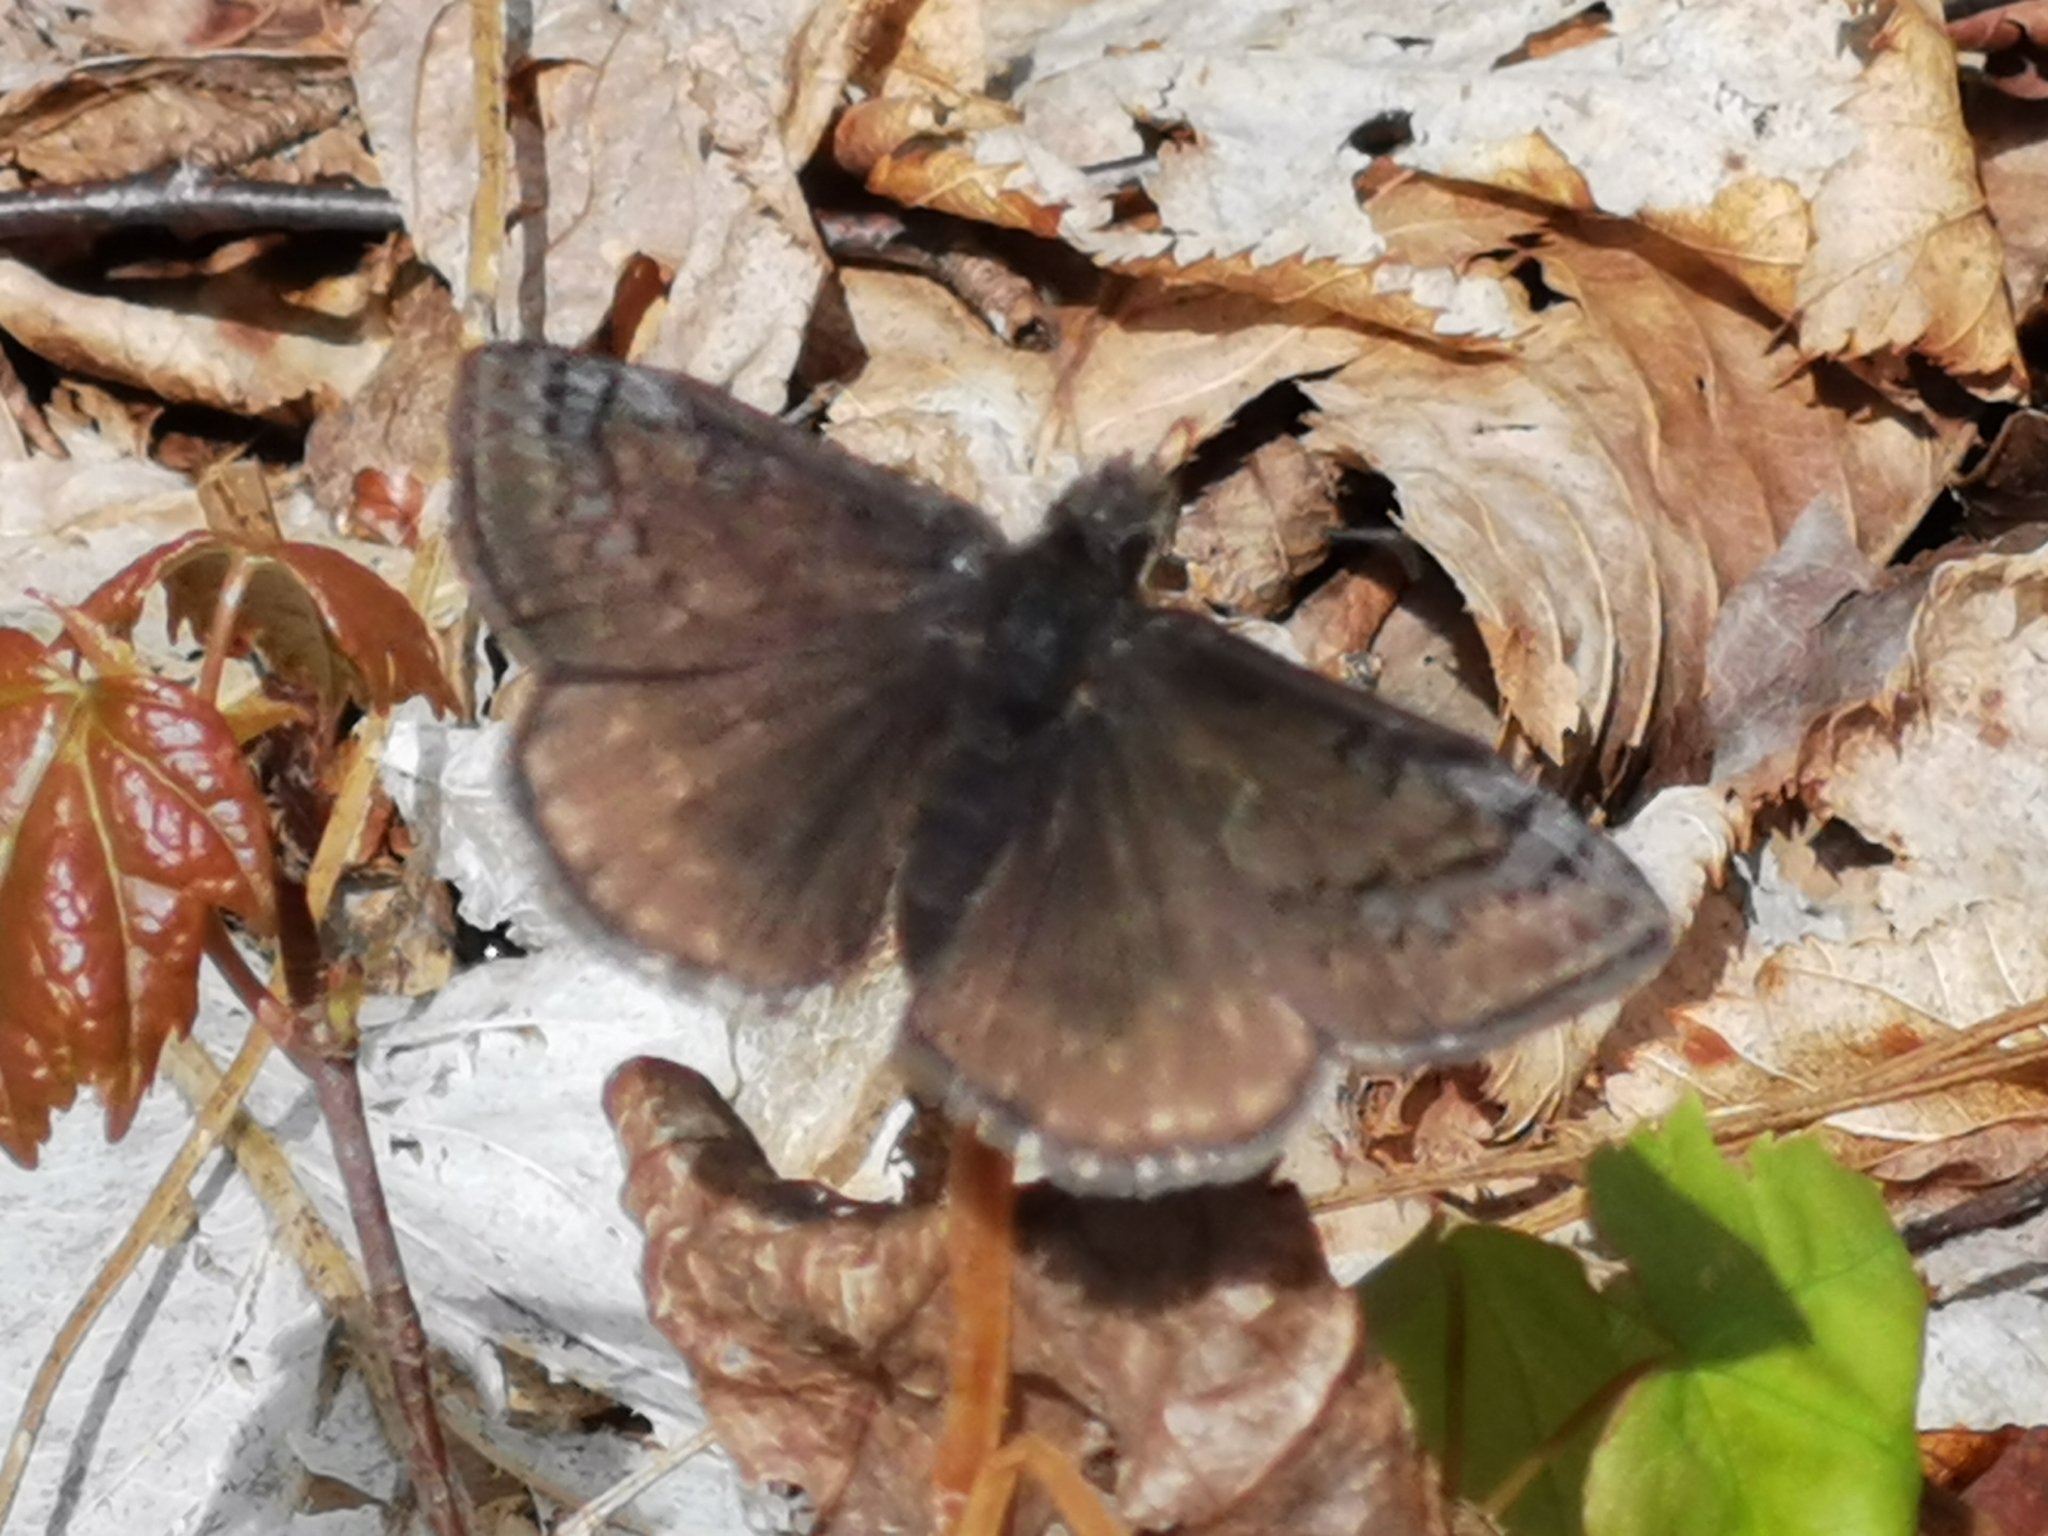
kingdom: Animalia
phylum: Arthropoda
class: Insecta
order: Lepidoptera
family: Hesperiidae
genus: Erynnis
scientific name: Erynnis brizo
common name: Sleepy duskywing
